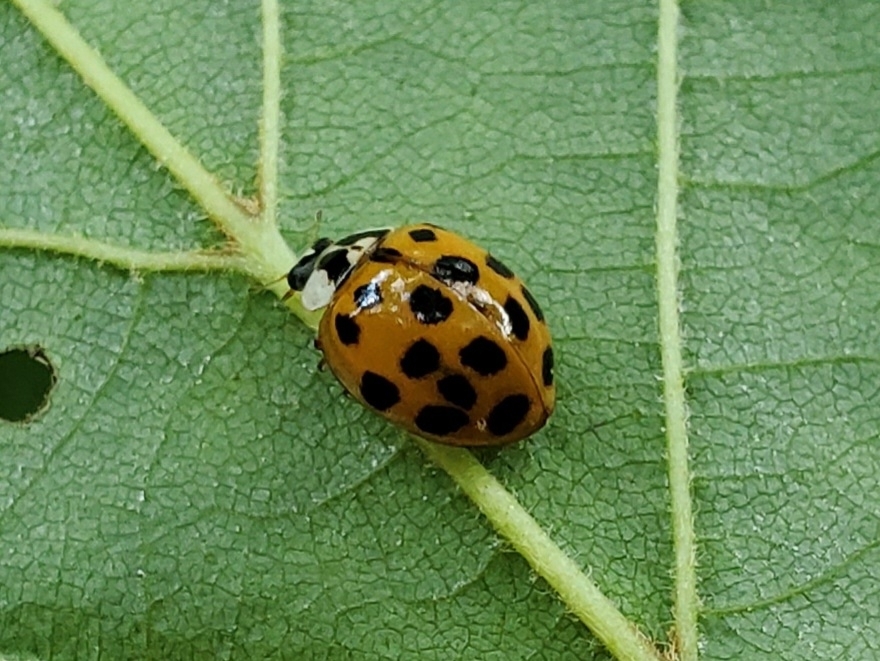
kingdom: Animalia
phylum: Arthropoda
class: Insecta
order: Coleoptera
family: Coccinellidae
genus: Harmonia
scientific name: Harmonia axyridis
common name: Harlequin ladybird
